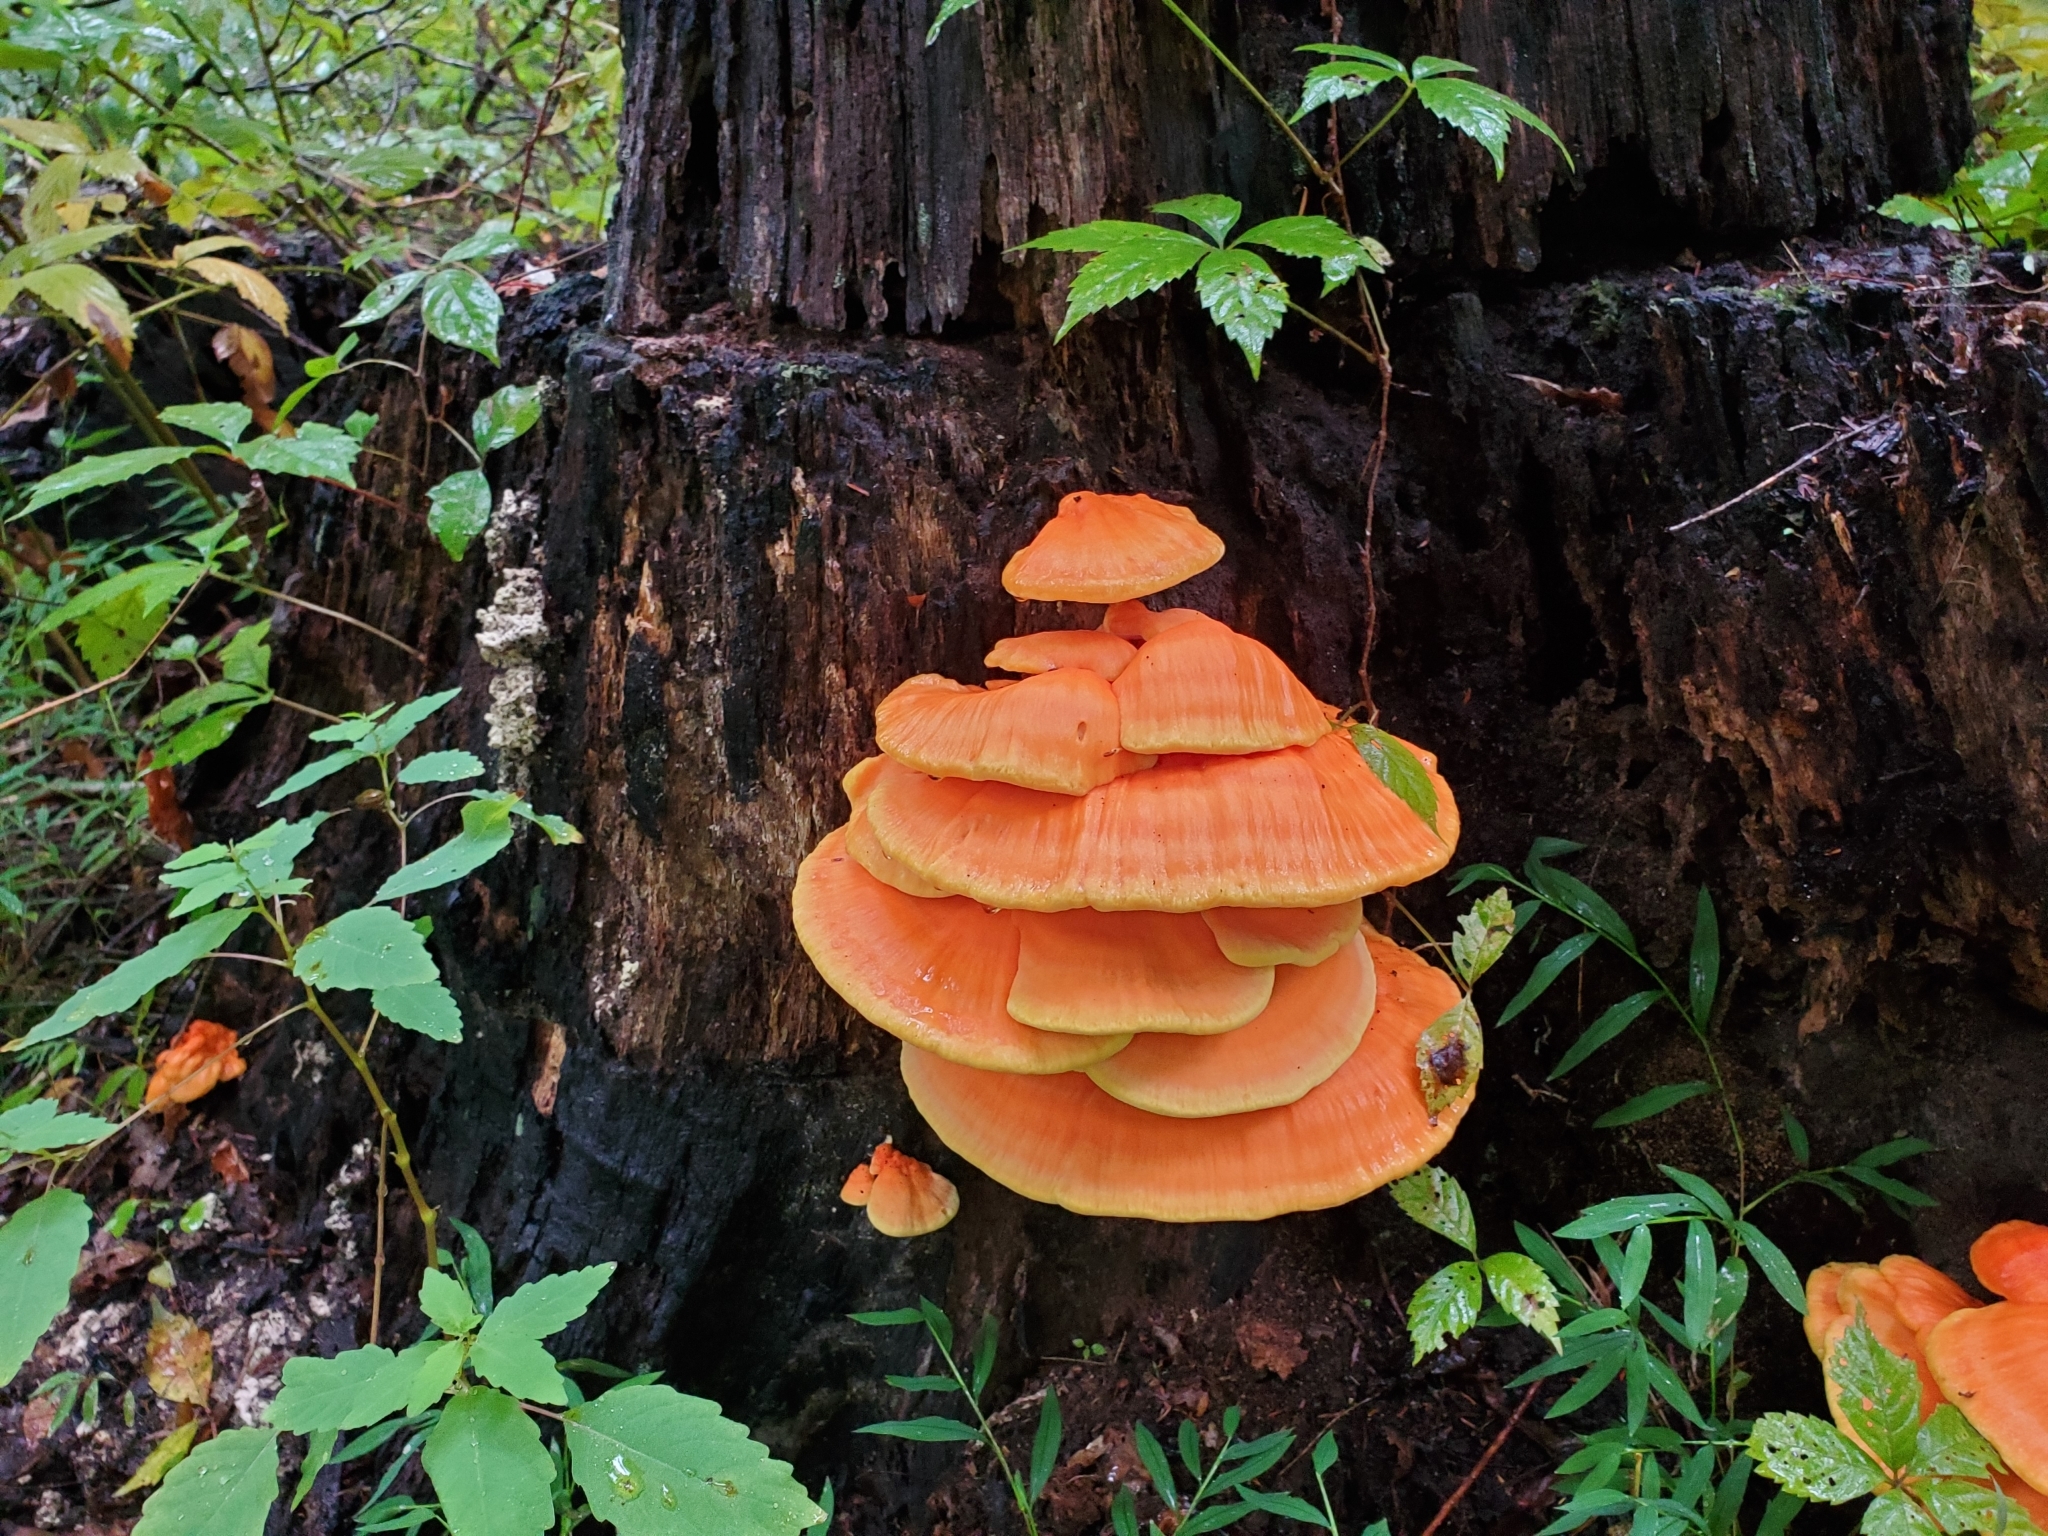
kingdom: Fungi
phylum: Basidiomycota
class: Agaricomycetes
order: Polyporales
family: Laetiporaceae
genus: Laetiporus
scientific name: Laetiporus sulphureus
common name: Chicken of the woods
